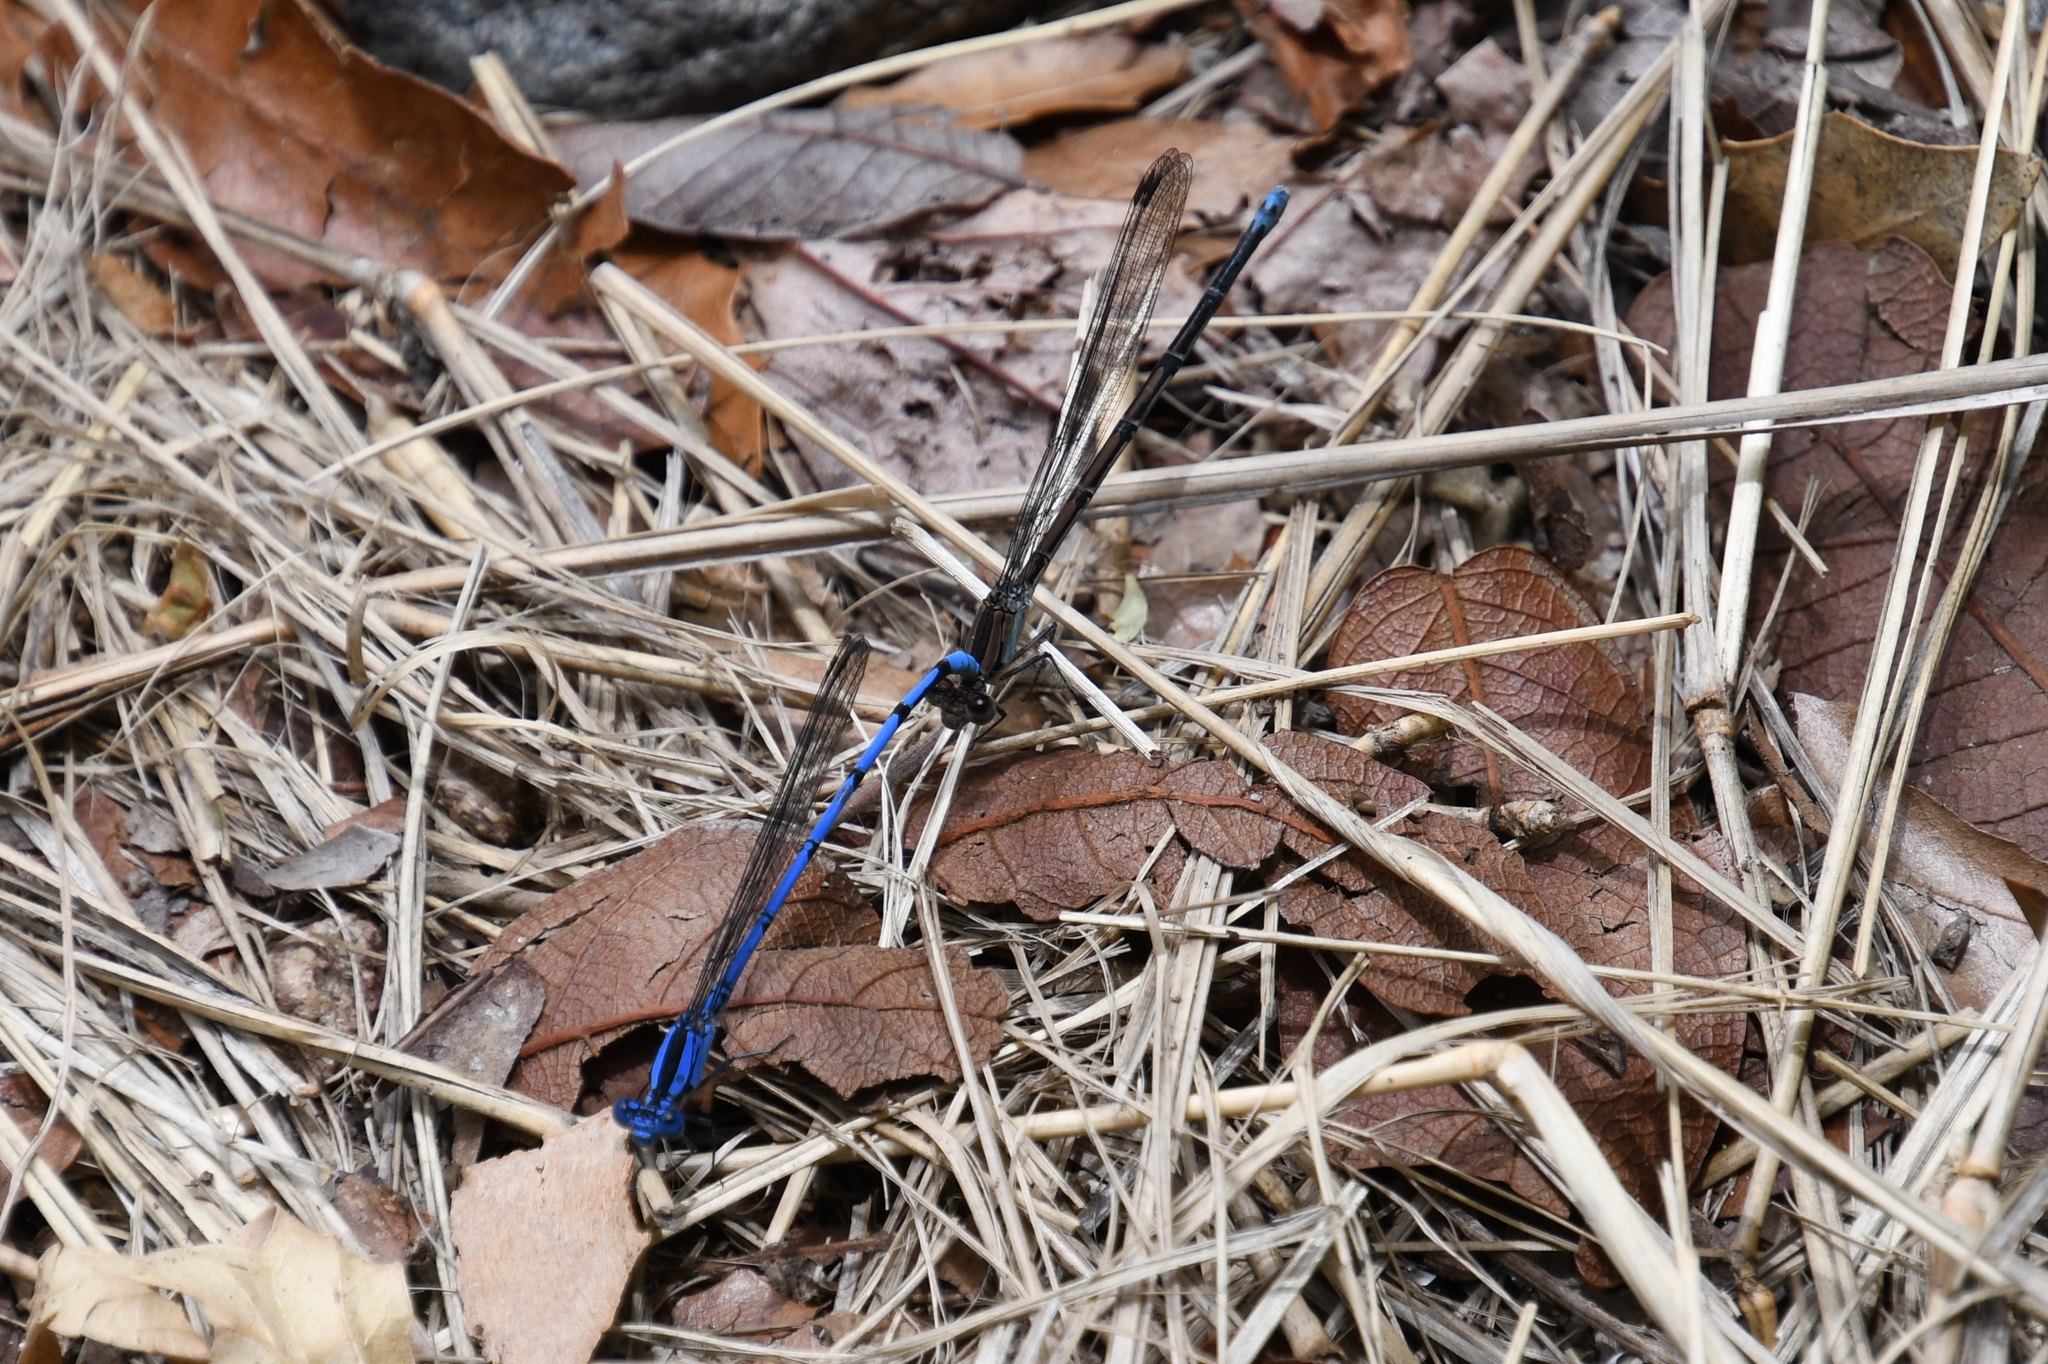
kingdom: Animalia
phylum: Arthropoda
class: Insecta
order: Odonata
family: Coenagrionidae
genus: Argia
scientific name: Argia lacrimans
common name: Sierra madre dancer
